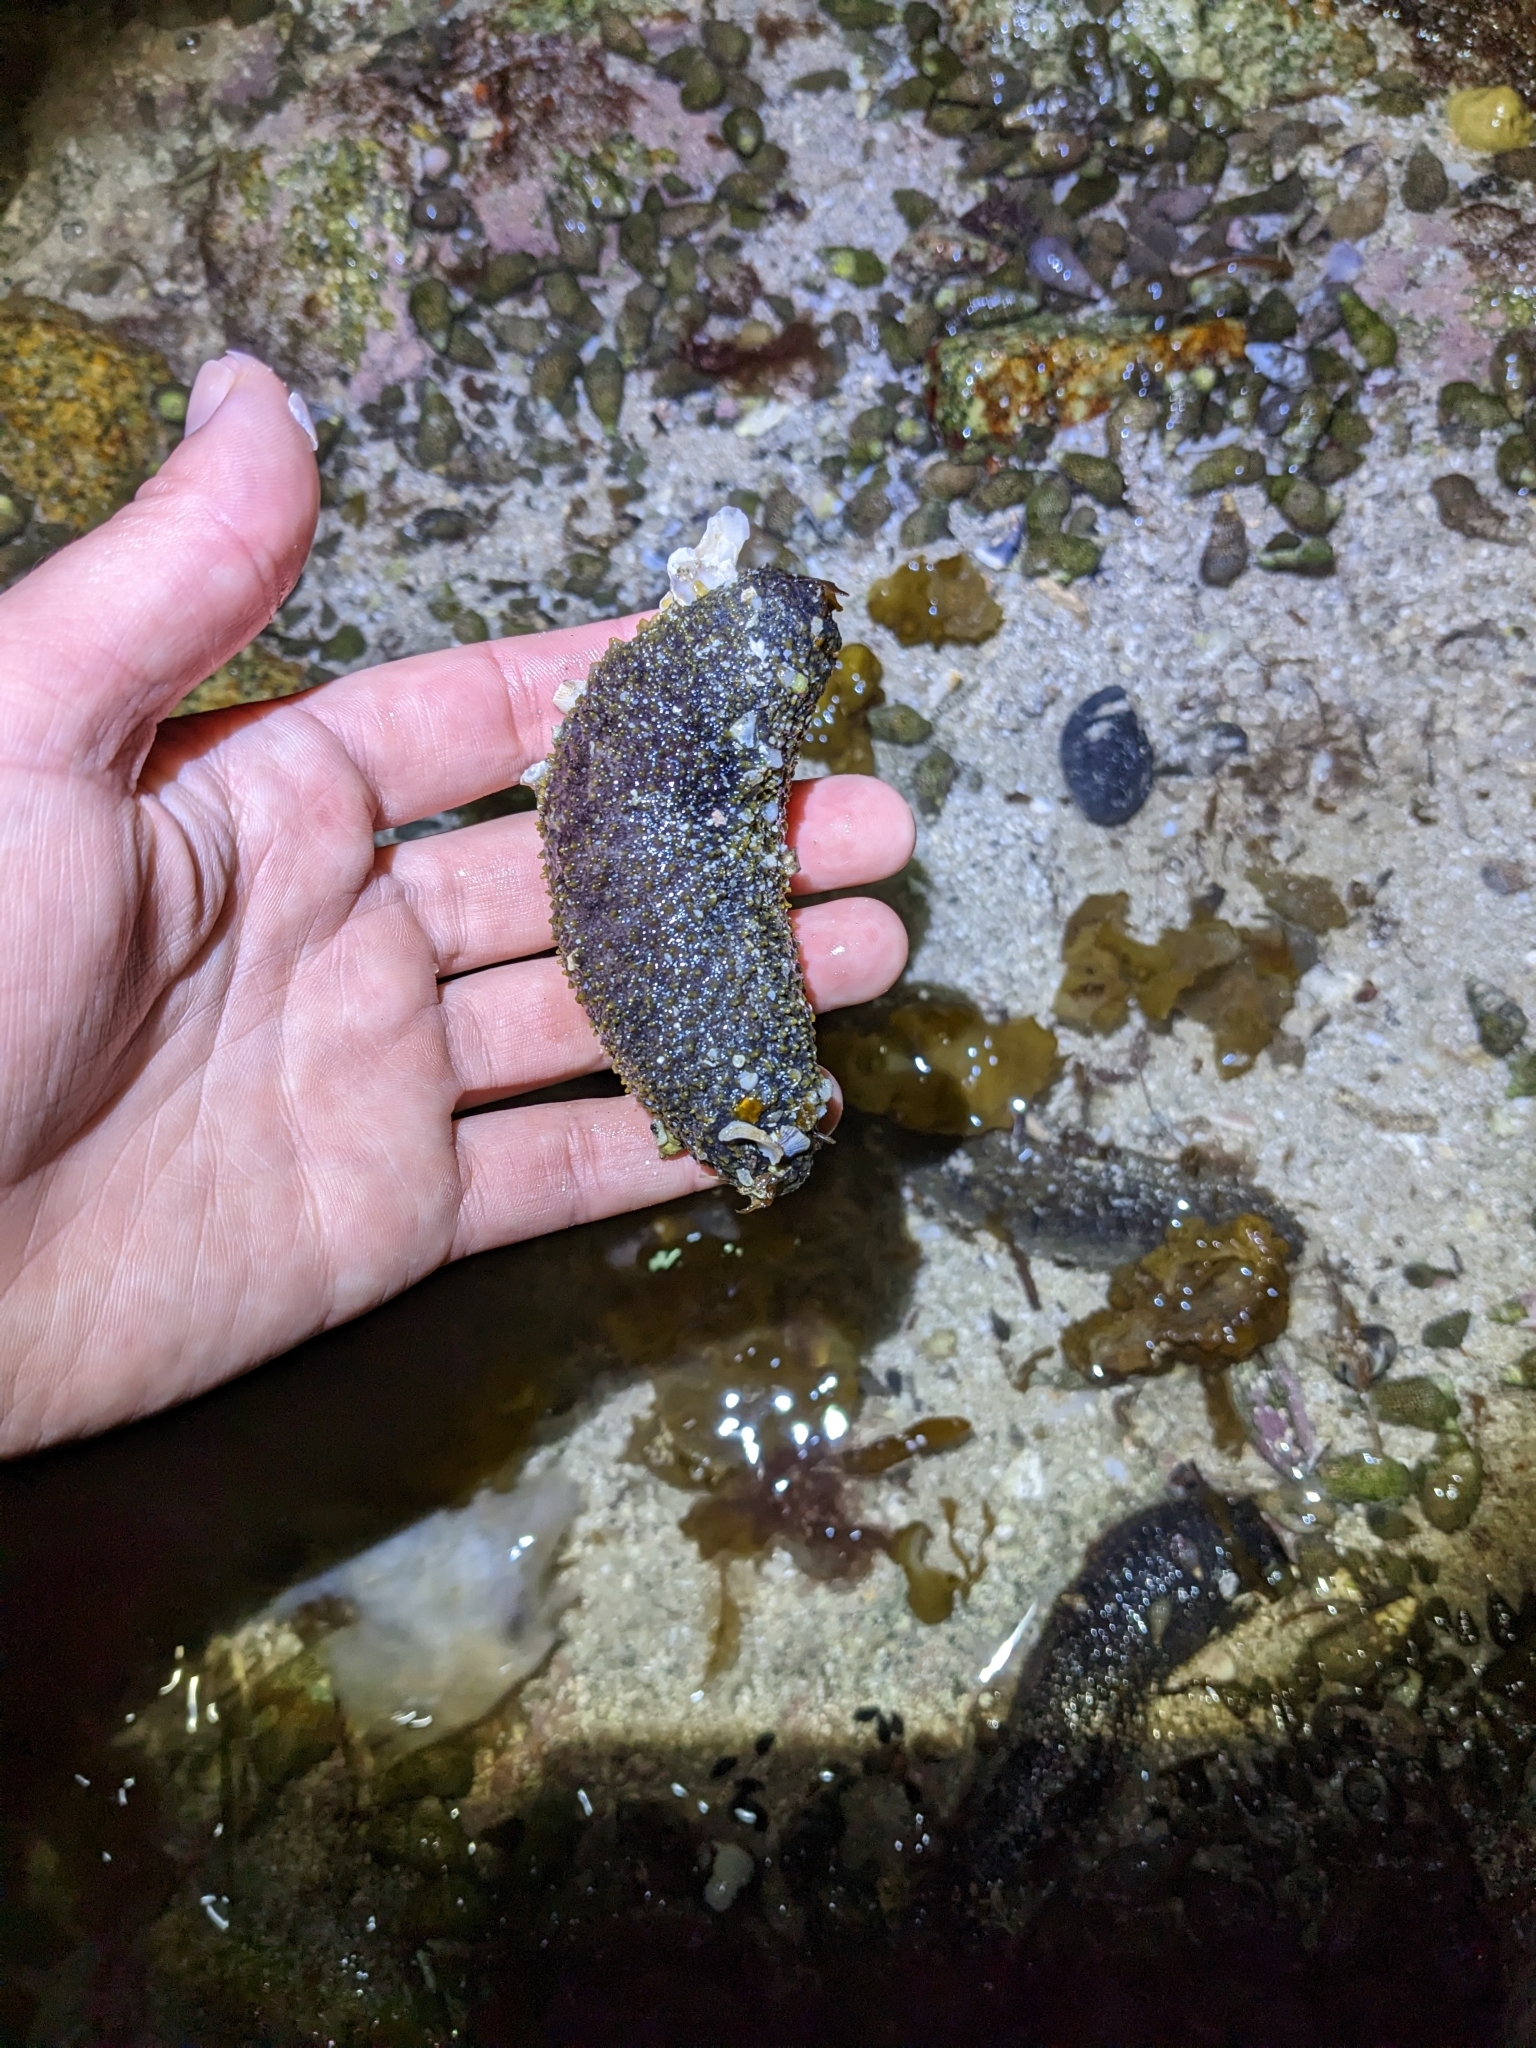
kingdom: Animalia
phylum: Echinodermata
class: Holothuroidea
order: Holothuriida
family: Holothuriidae
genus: Holothuria
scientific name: Holothuria lubrica
